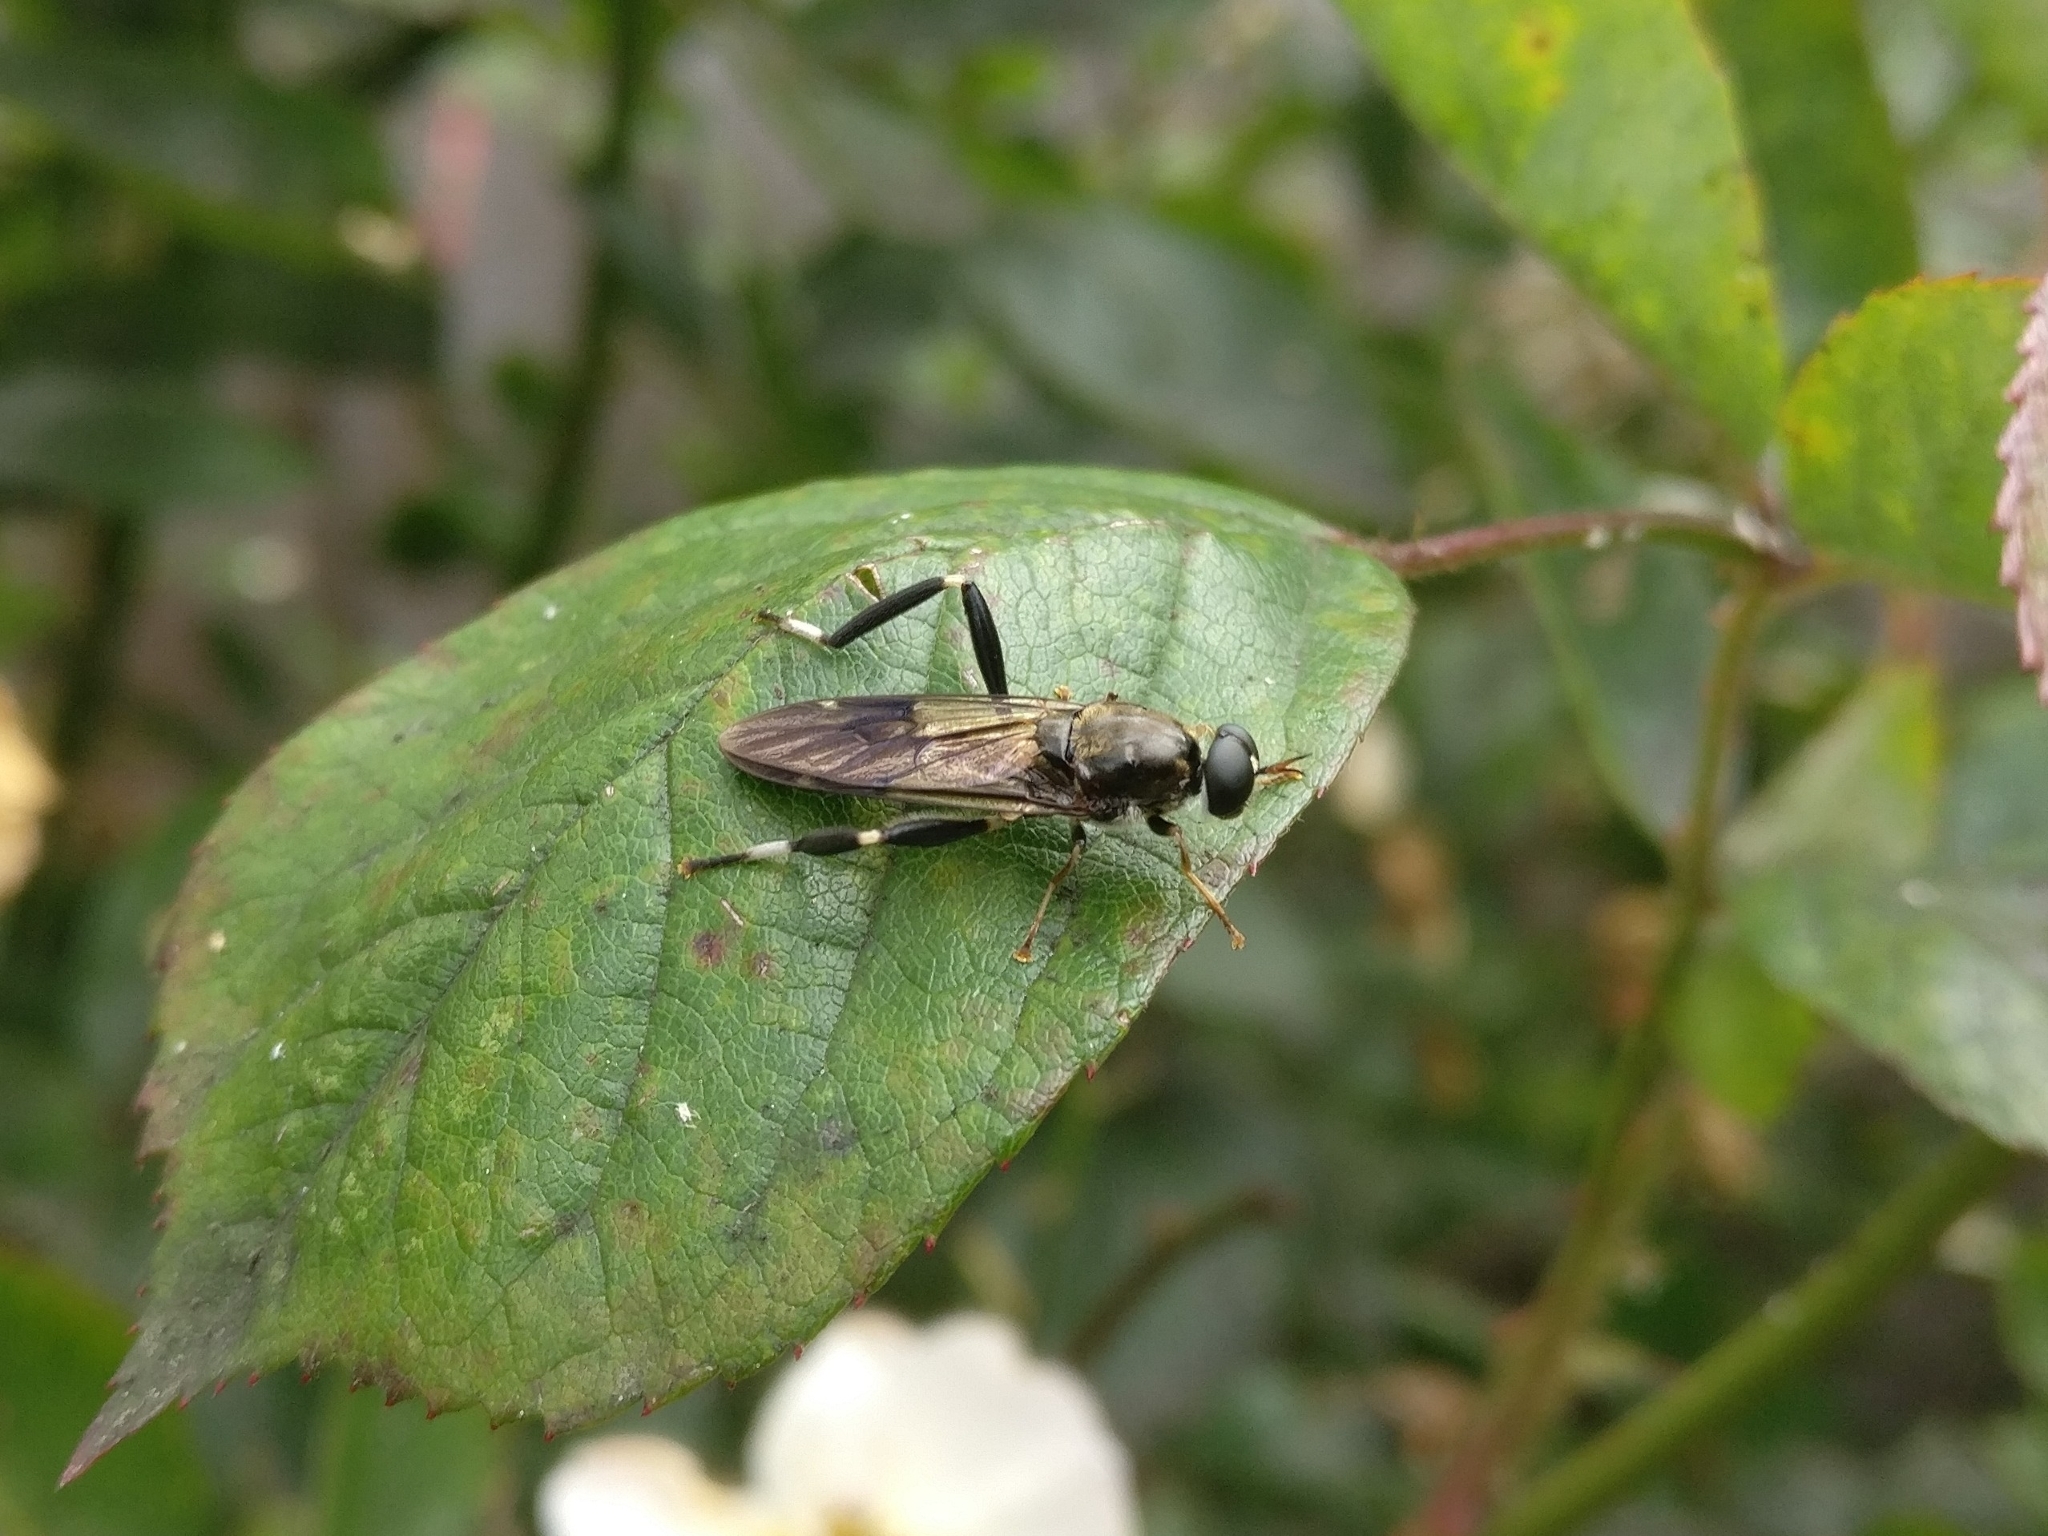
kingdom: Animalia
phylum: Arthropoda
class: Insecta
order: Diptera
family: Stratiomyidae
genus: Exaireta
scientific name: Exaireta spinigera
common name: Blue soldier fly
